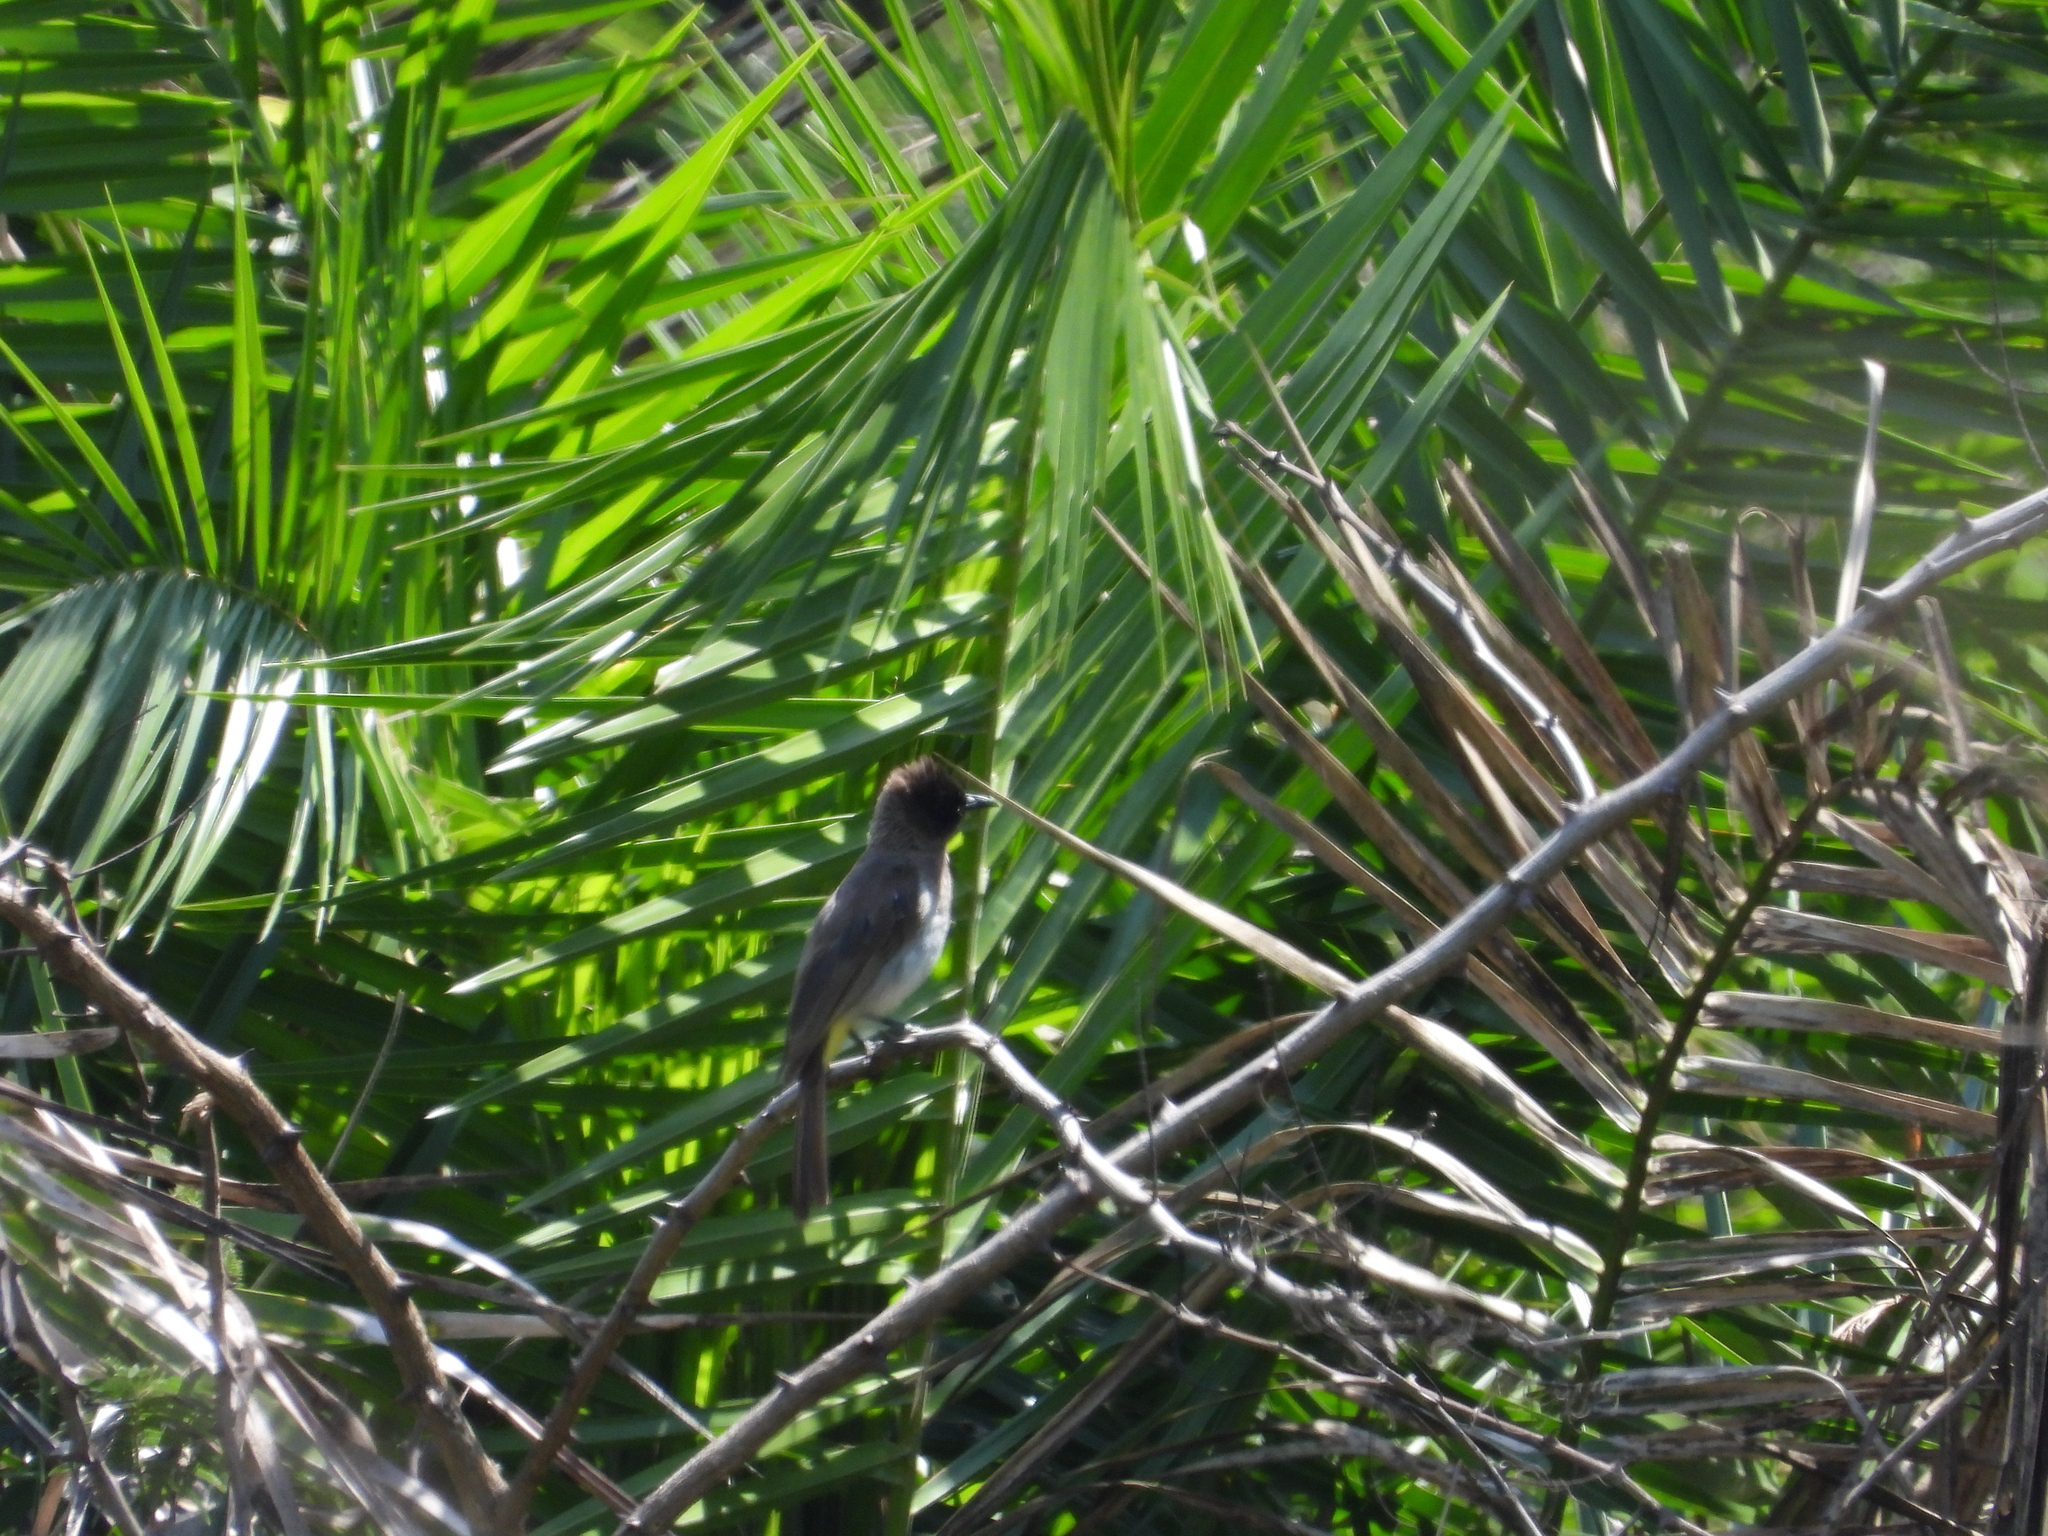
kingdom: Animalia
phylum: Chordata
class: Aves
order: Passeriformes
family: Pycnonotidae
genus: Pycnonotus
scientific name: Pycnonotus barbatus
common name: Common bulbul
